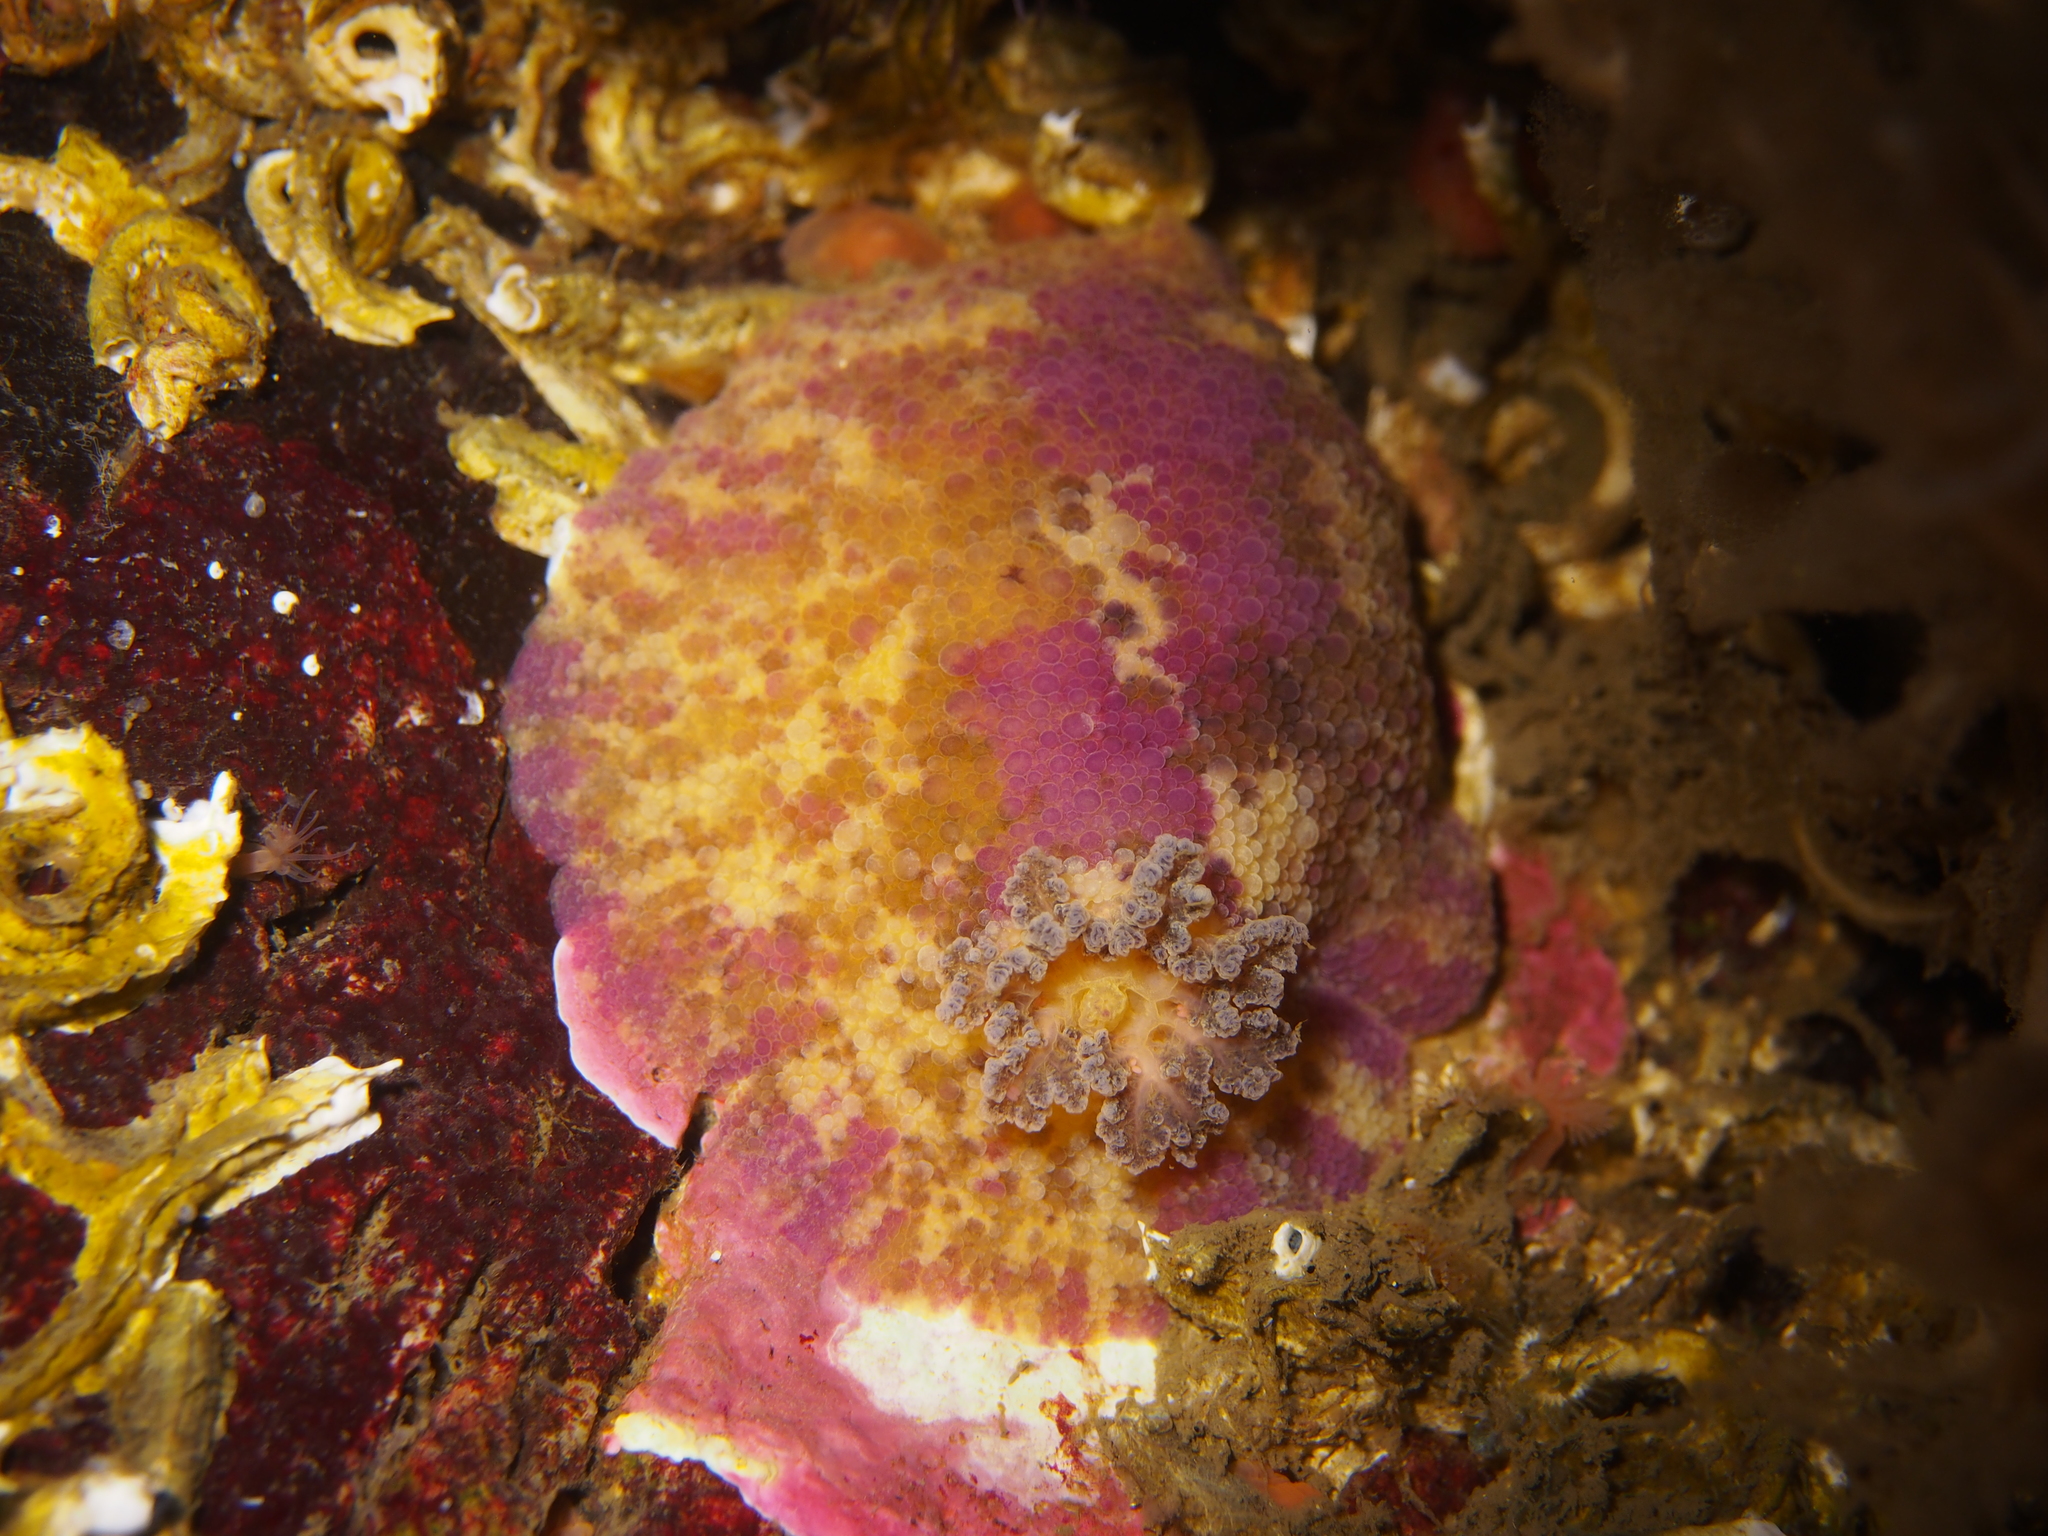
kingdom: Animalia
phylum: Mollusca
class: Gastropoda
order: Nudibranchia
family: Dorididae
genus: Doris
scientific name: Doris pseudoargus
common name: Sea lemon
